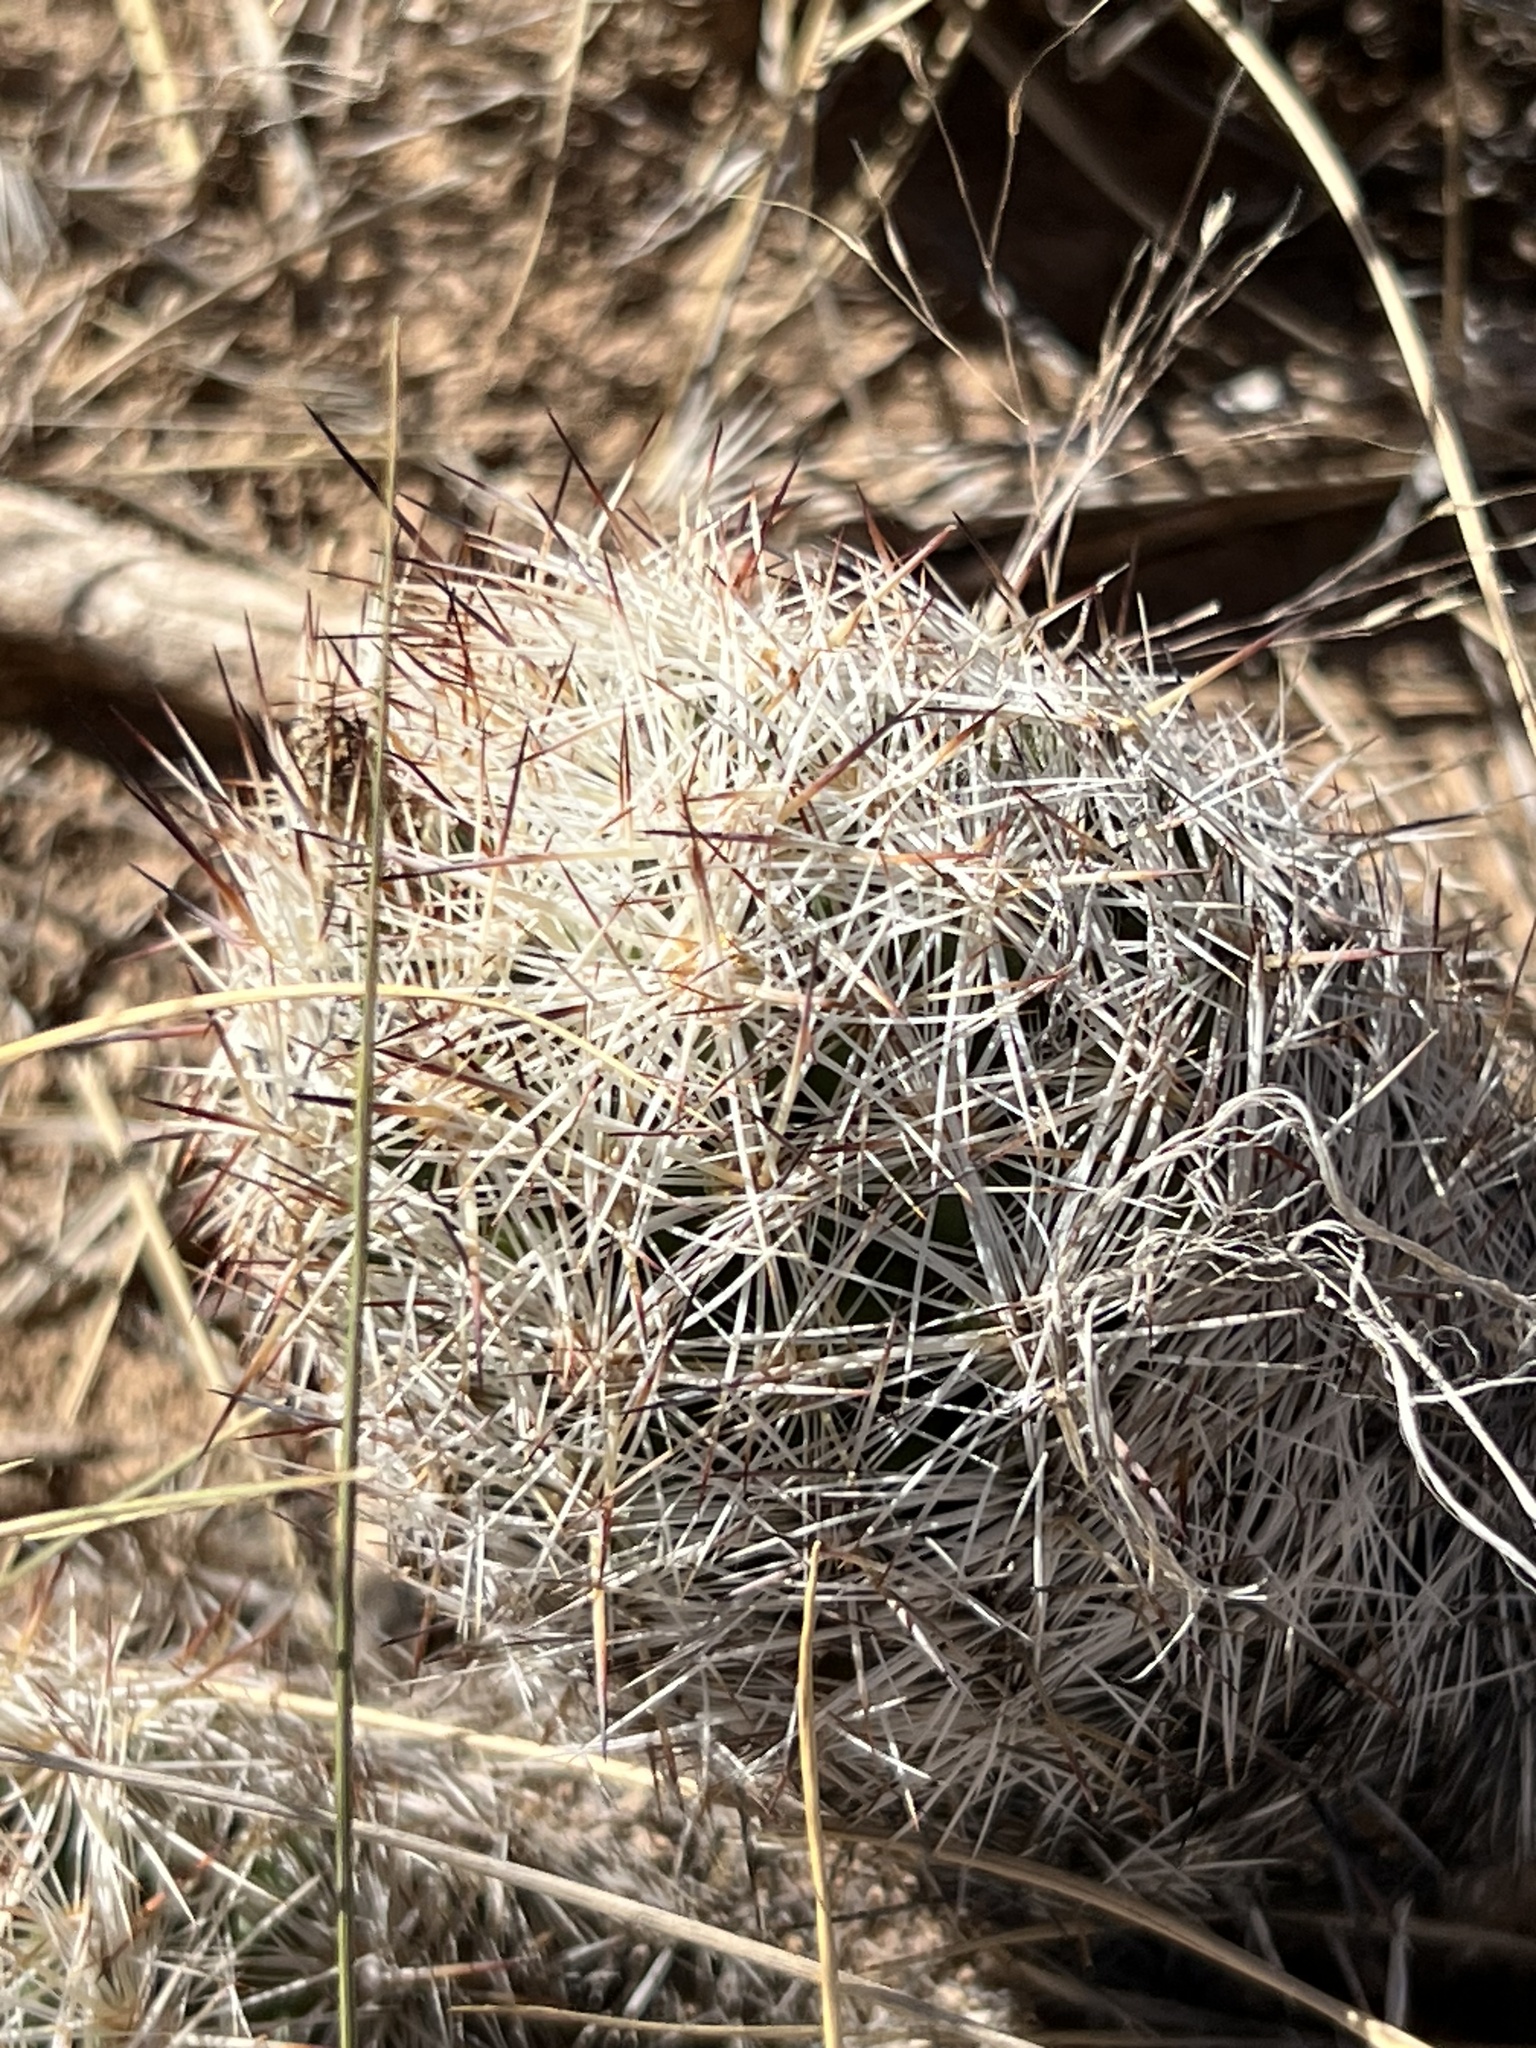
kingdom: Plantae
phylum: Tracheophyta
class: Magnoliopsida
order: Caryophyllales
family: Cactaceae
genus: Pelecyphora
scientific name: Pelecyphora vivipara
